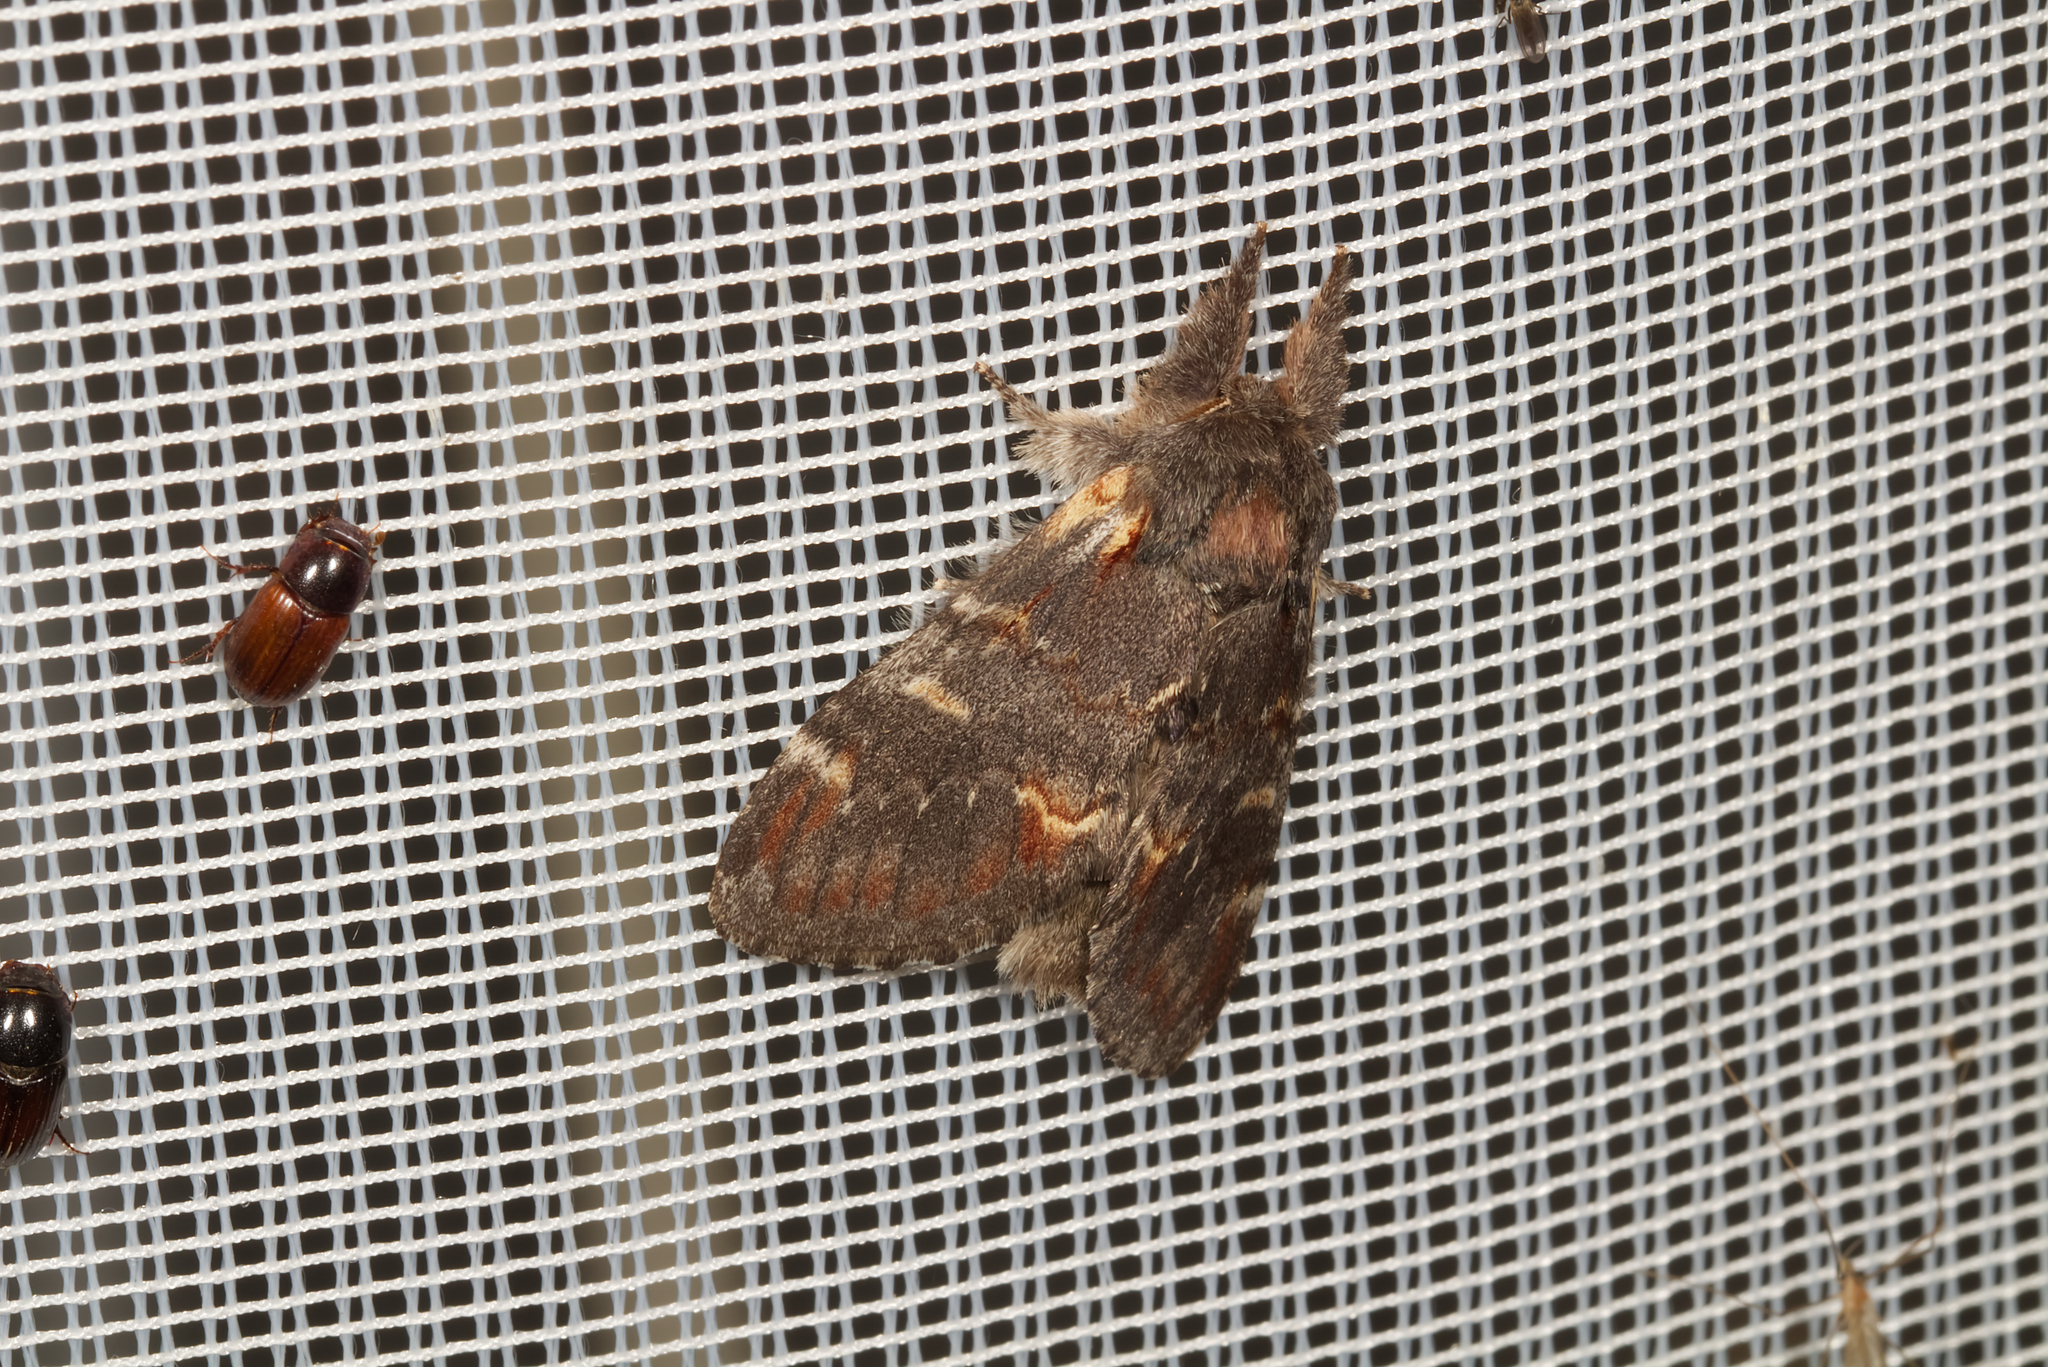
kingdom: Animalia
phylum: Arthropoda
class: Insecta
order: Lepidoptera
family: Notodontidae
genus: Notodonta
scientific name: Notodonta dromedarius
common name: Iron prominent
